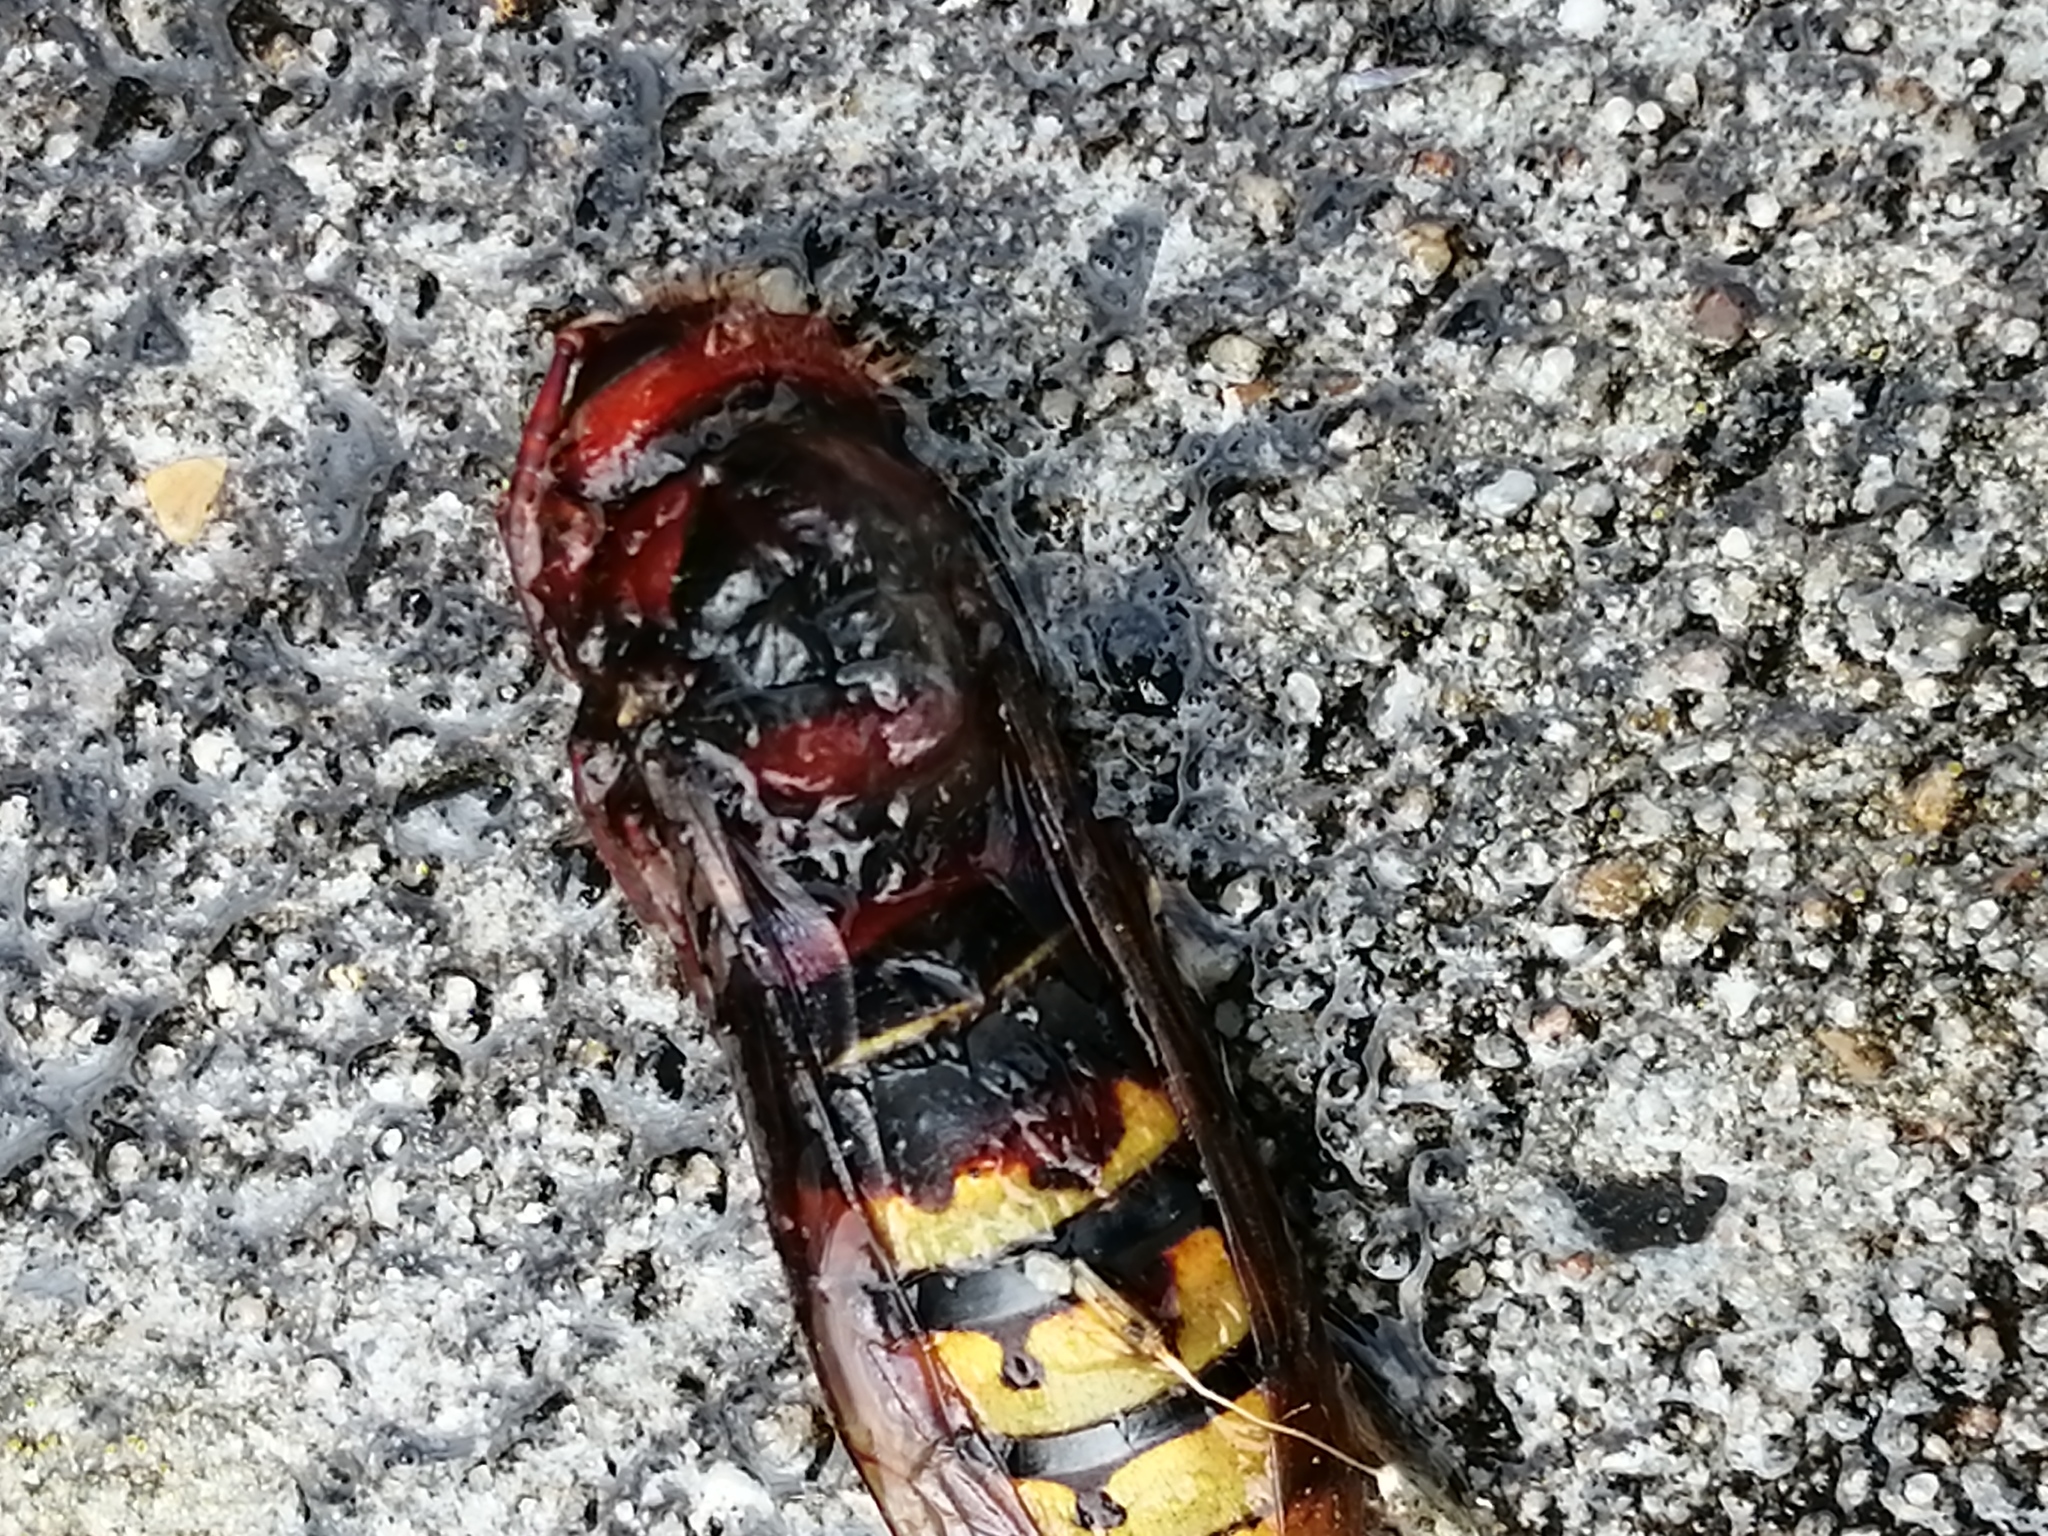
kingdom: Animalia
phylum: Arthropoda
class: Insecta
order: Hymenoptera
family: Vespidae
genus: Vespa
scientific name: Vespa crabro
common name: Hornet
